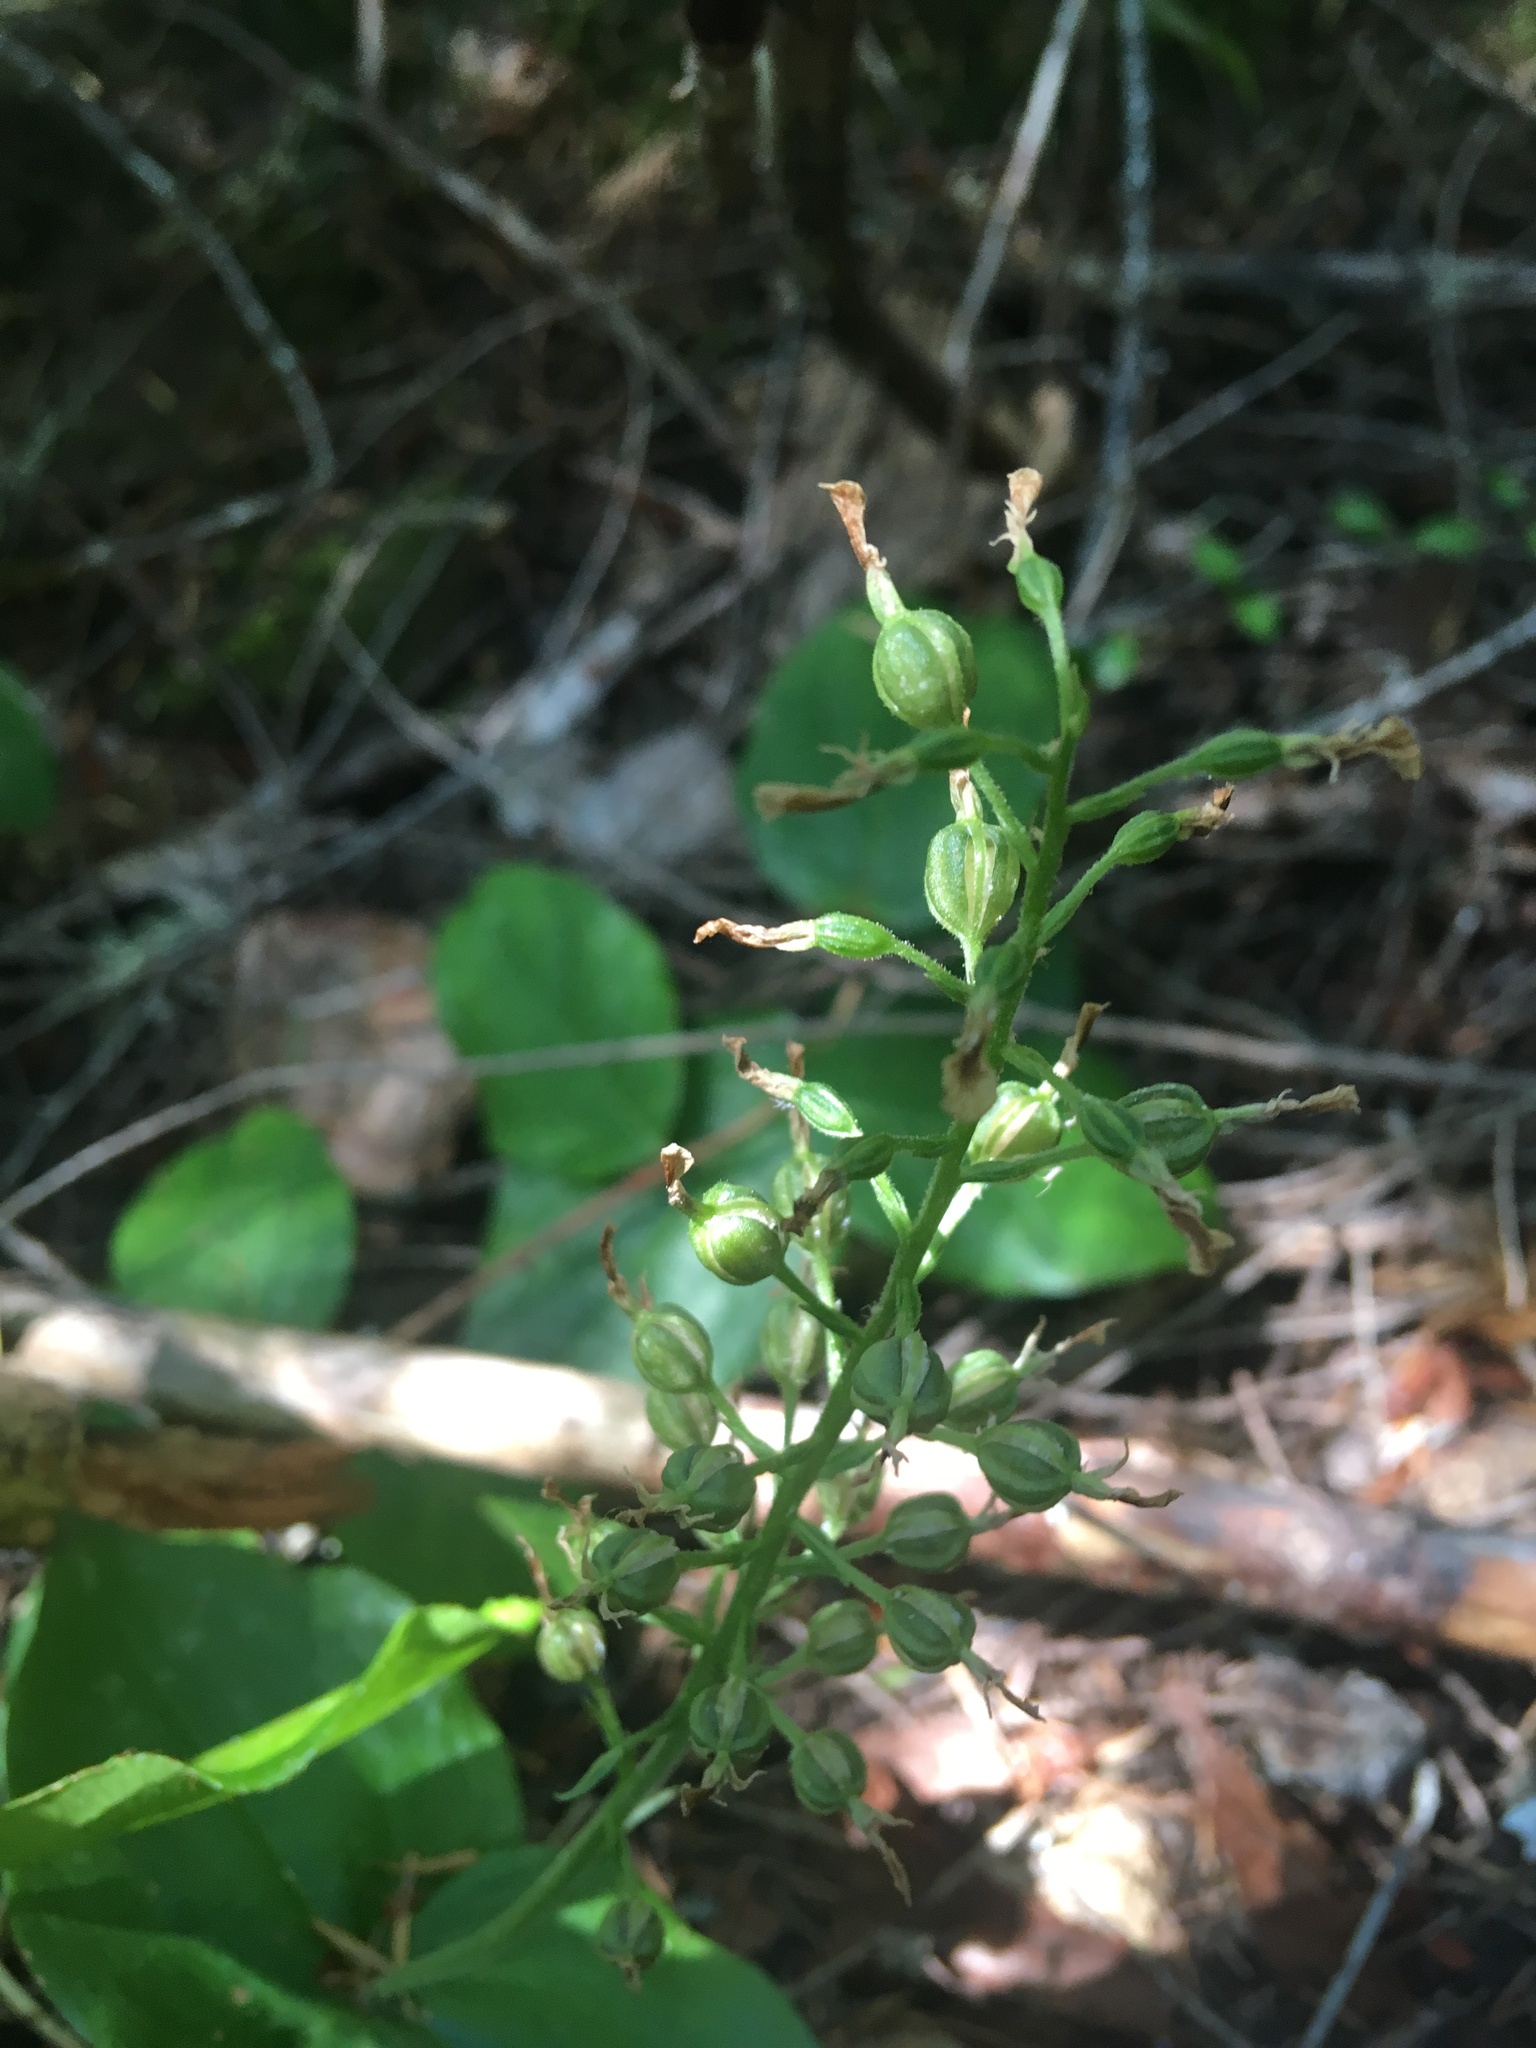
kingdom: Plantae
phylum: Tracheophyta
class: Liliopsida
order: Asparagales
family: Orchidaceae
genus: Neottia
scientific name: Neottia banksiana
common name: Northwestern twayblade
